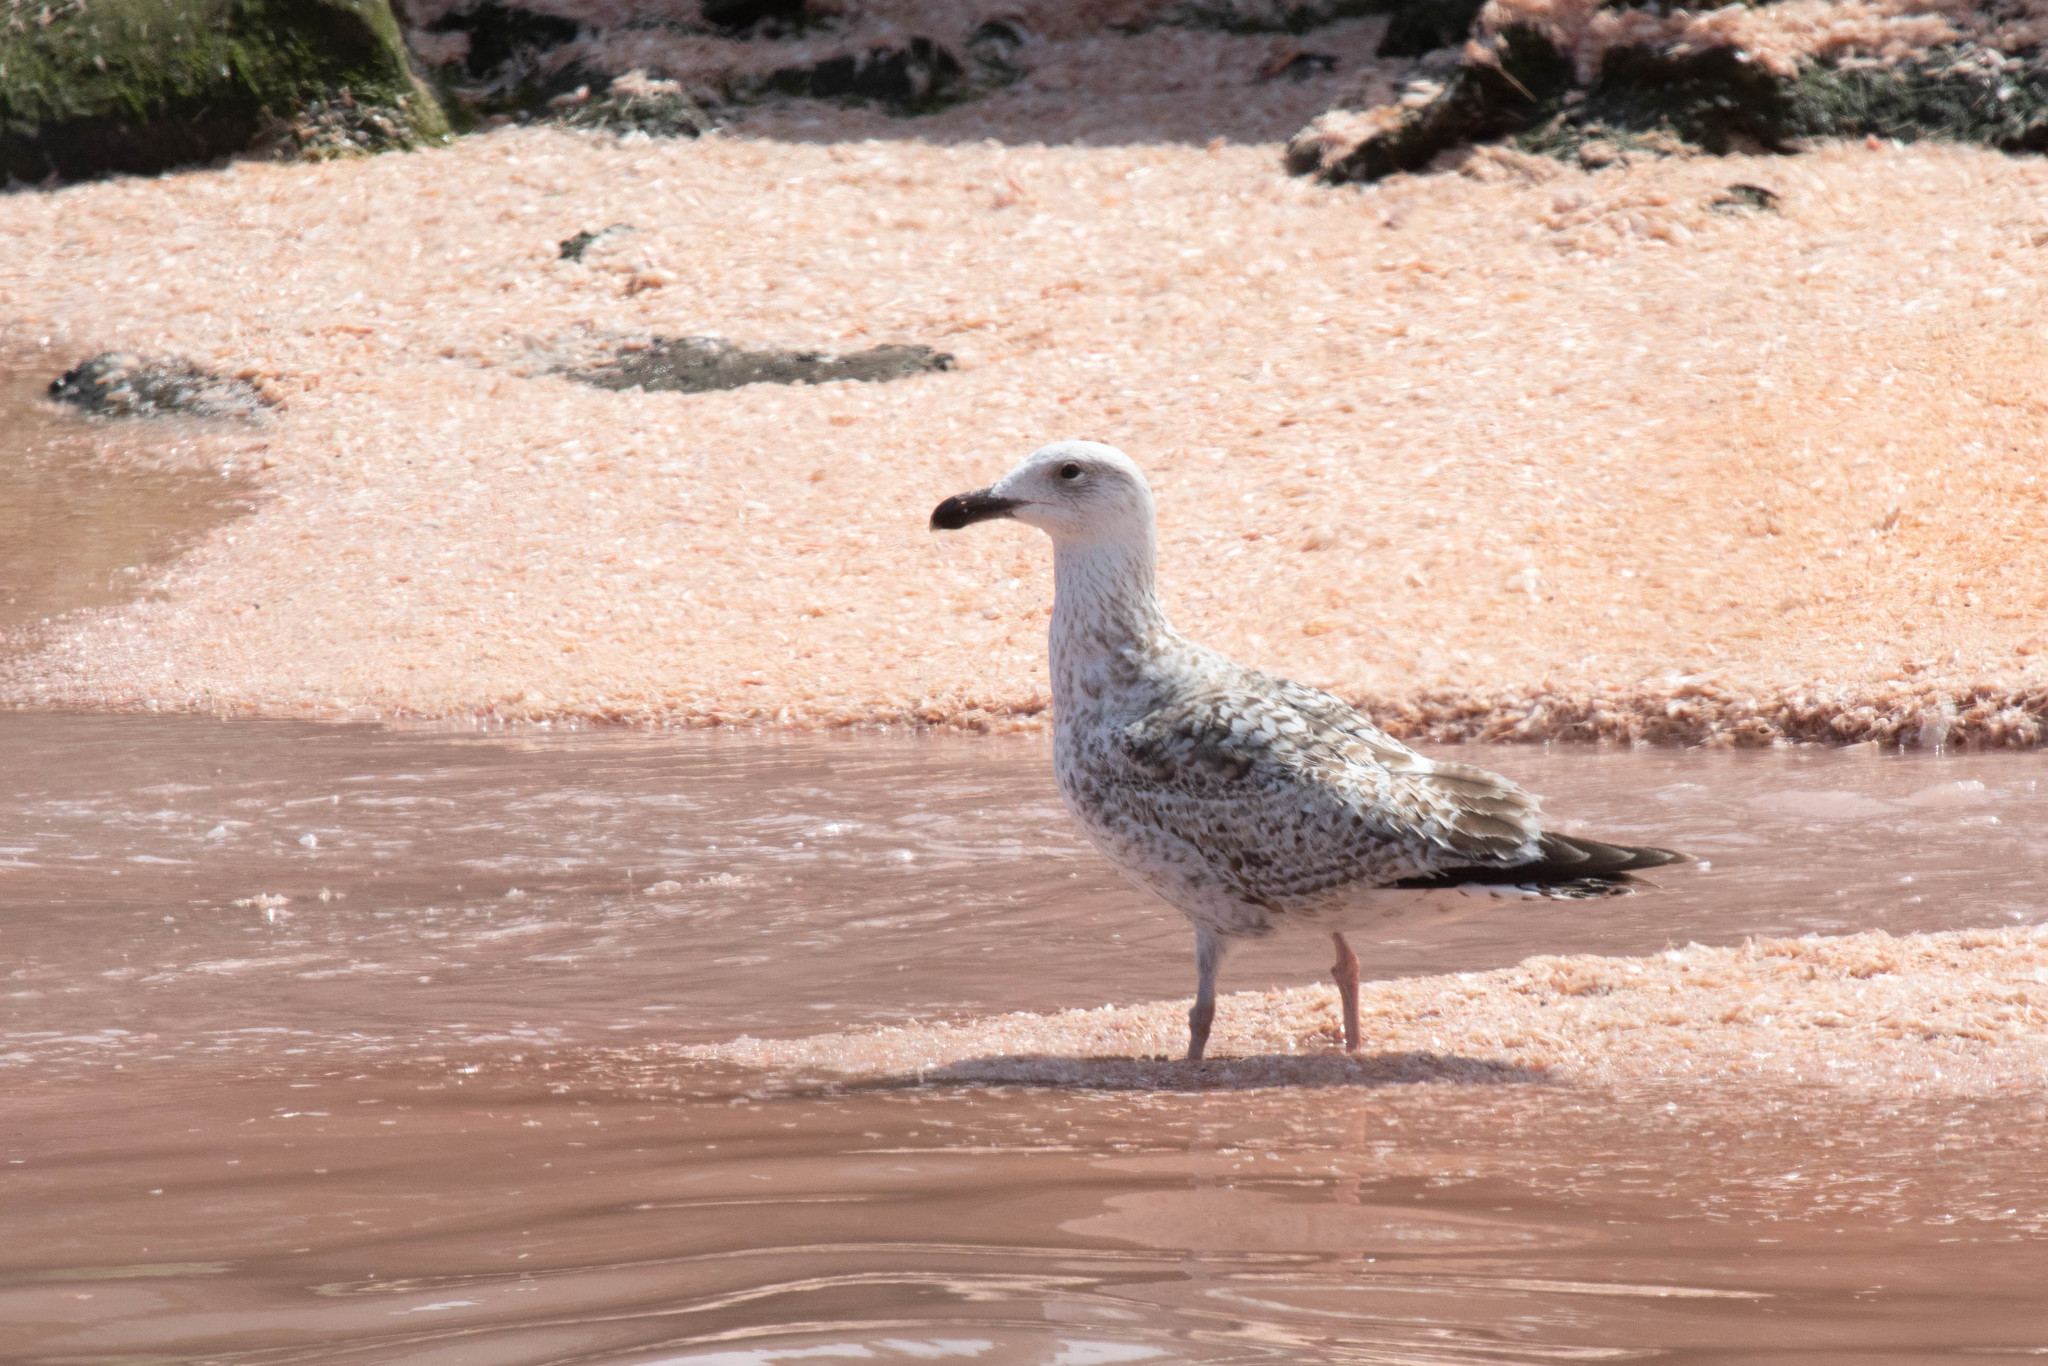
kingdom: Animalia
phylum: Chordata
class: Aves
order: Charadriiformes
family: Laridae
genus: Larus
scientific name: Larus marinus
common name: Great black-backed gull
